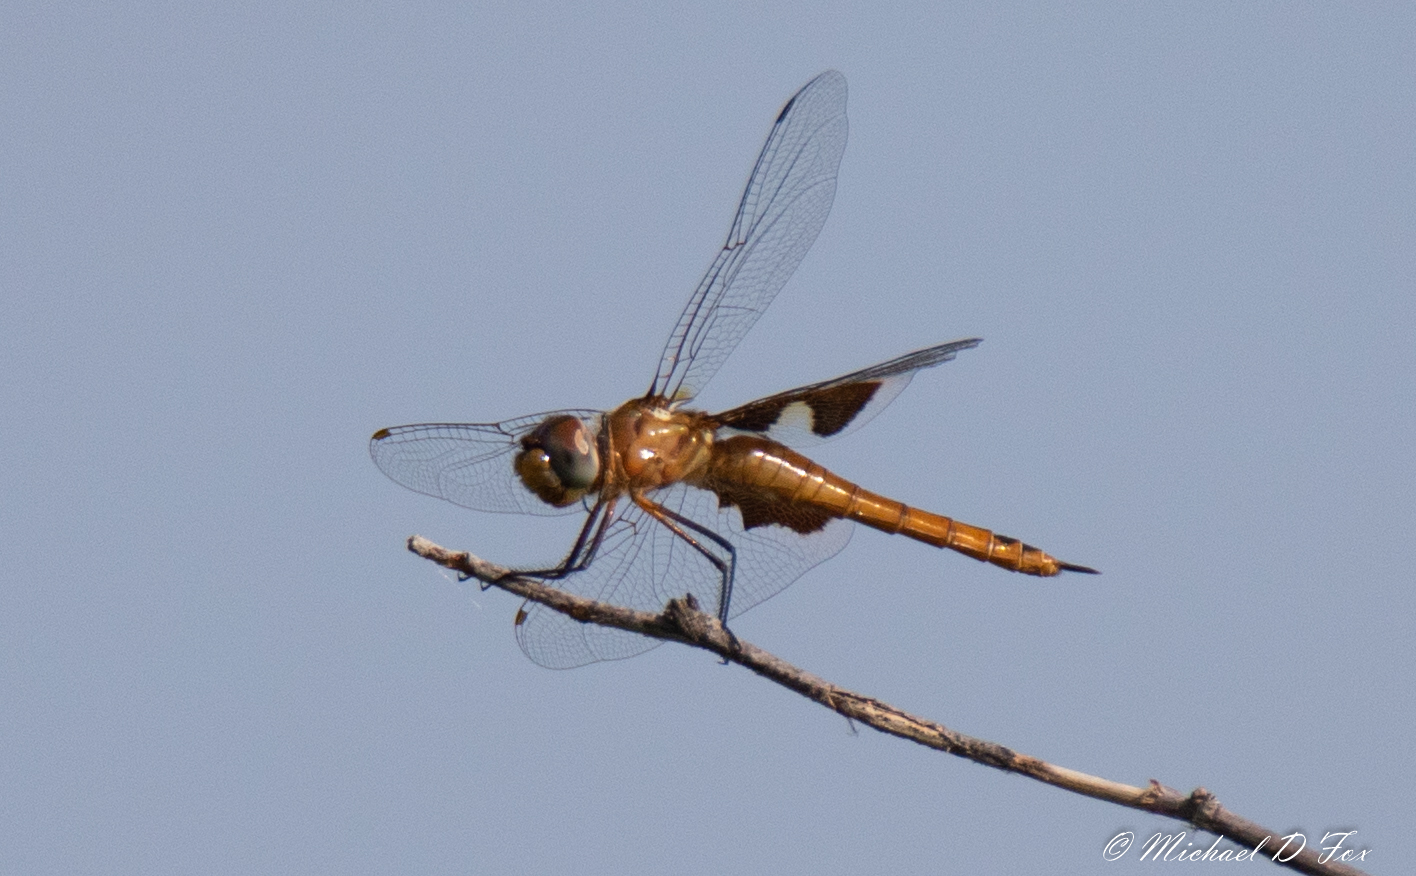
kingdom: Animalia
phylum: Arthropoda
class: Insecta
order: Odonata
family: Libellulidae
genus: Tramea
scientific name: Tramea onusta
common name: Red saddlebags
